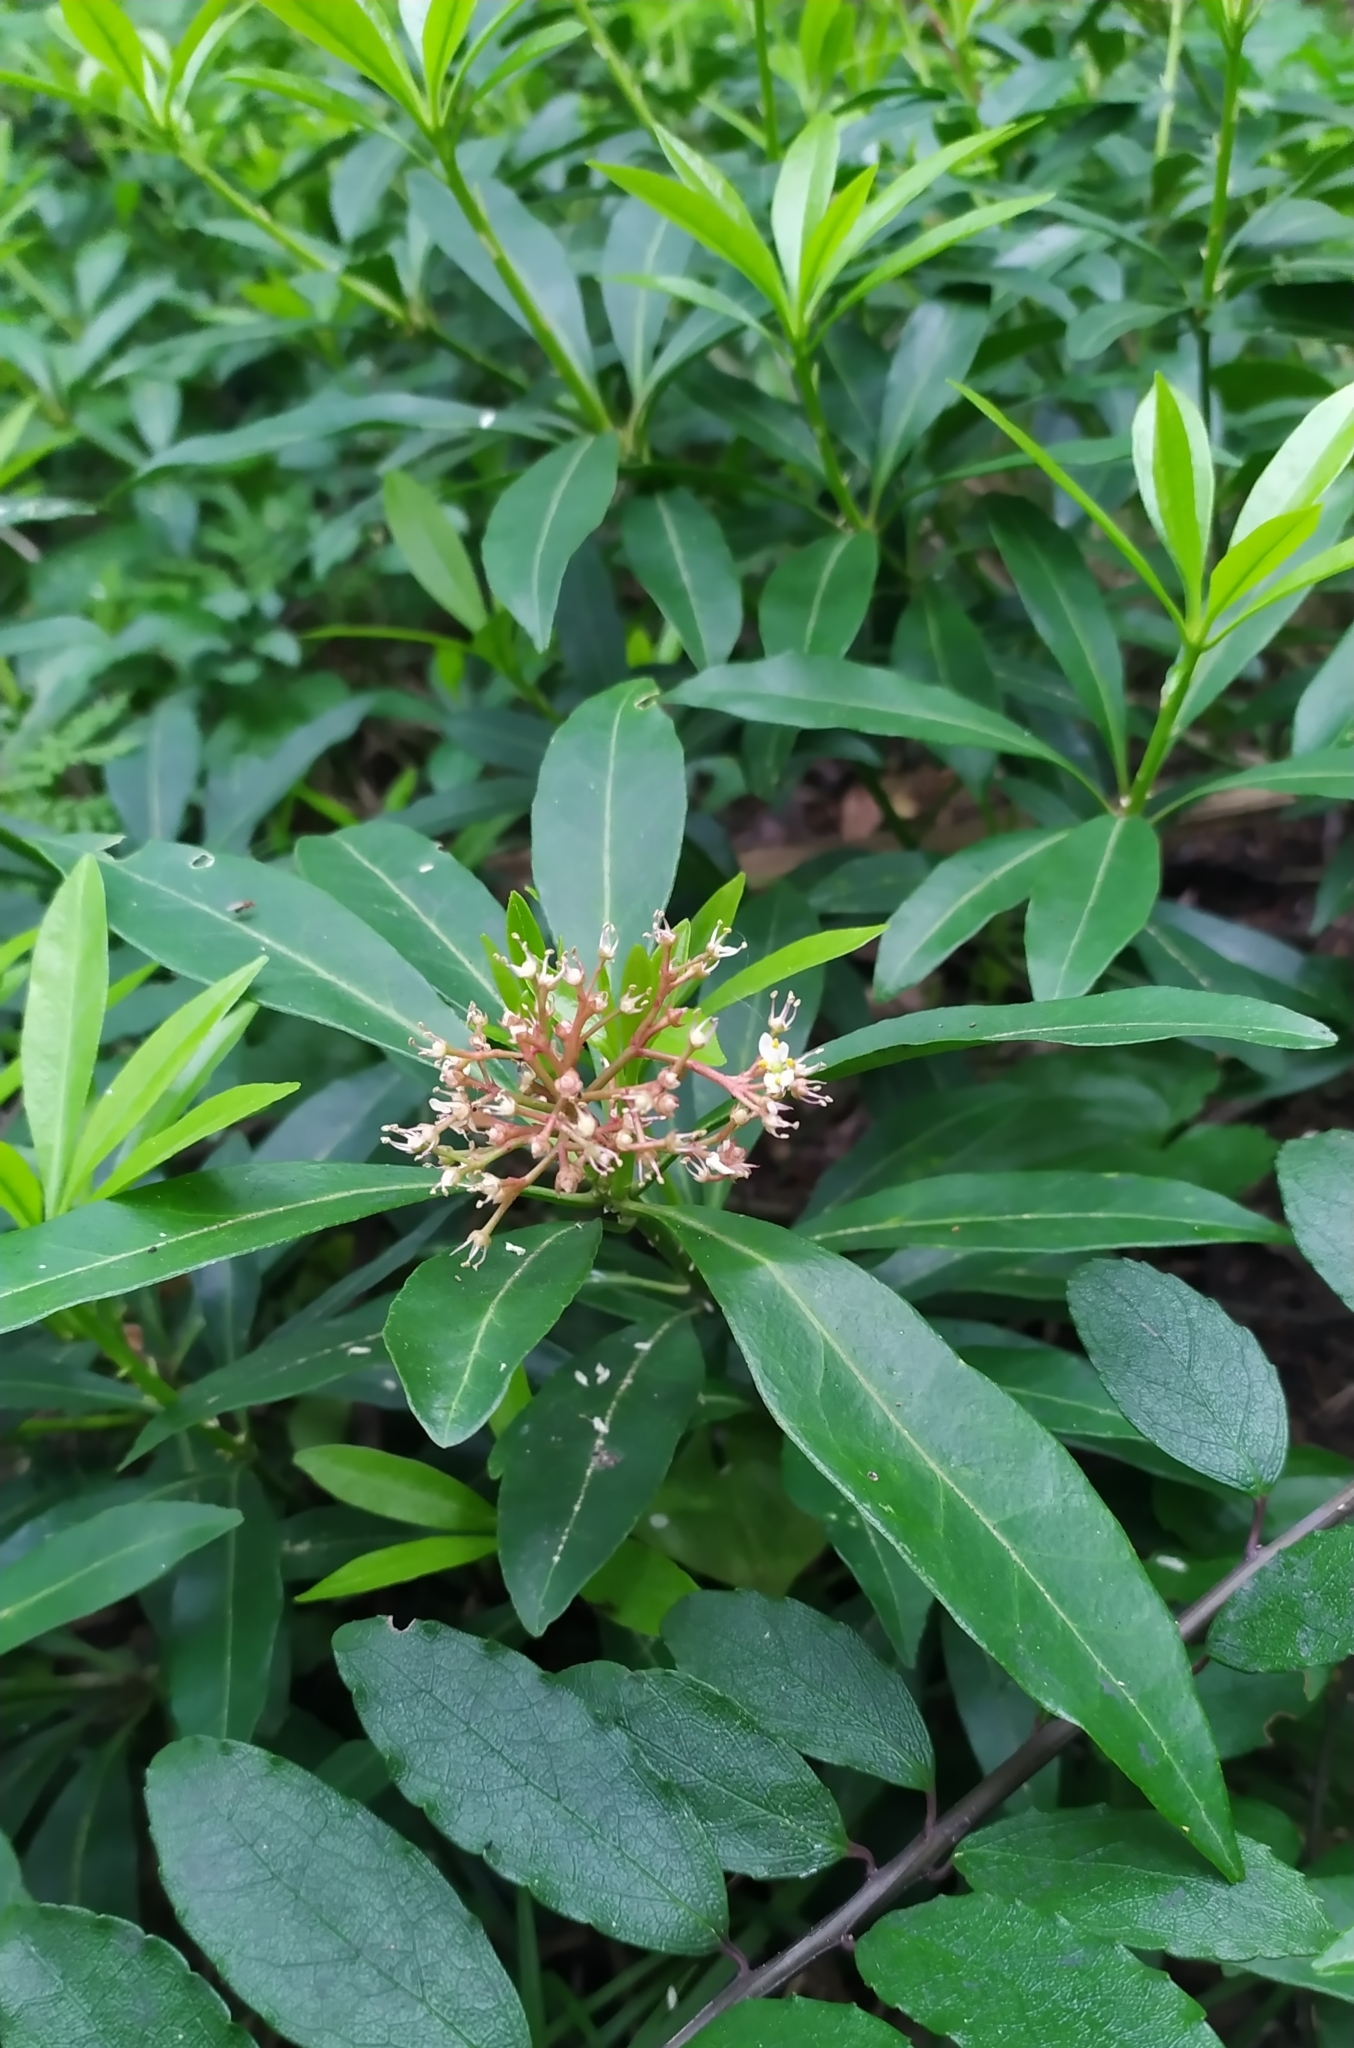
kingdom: Plantae
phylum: Tracheophyta
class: Magnoliopsida
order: Sapindales
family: Rutaceae
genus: Skimmia
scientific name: Skimmia japonica
